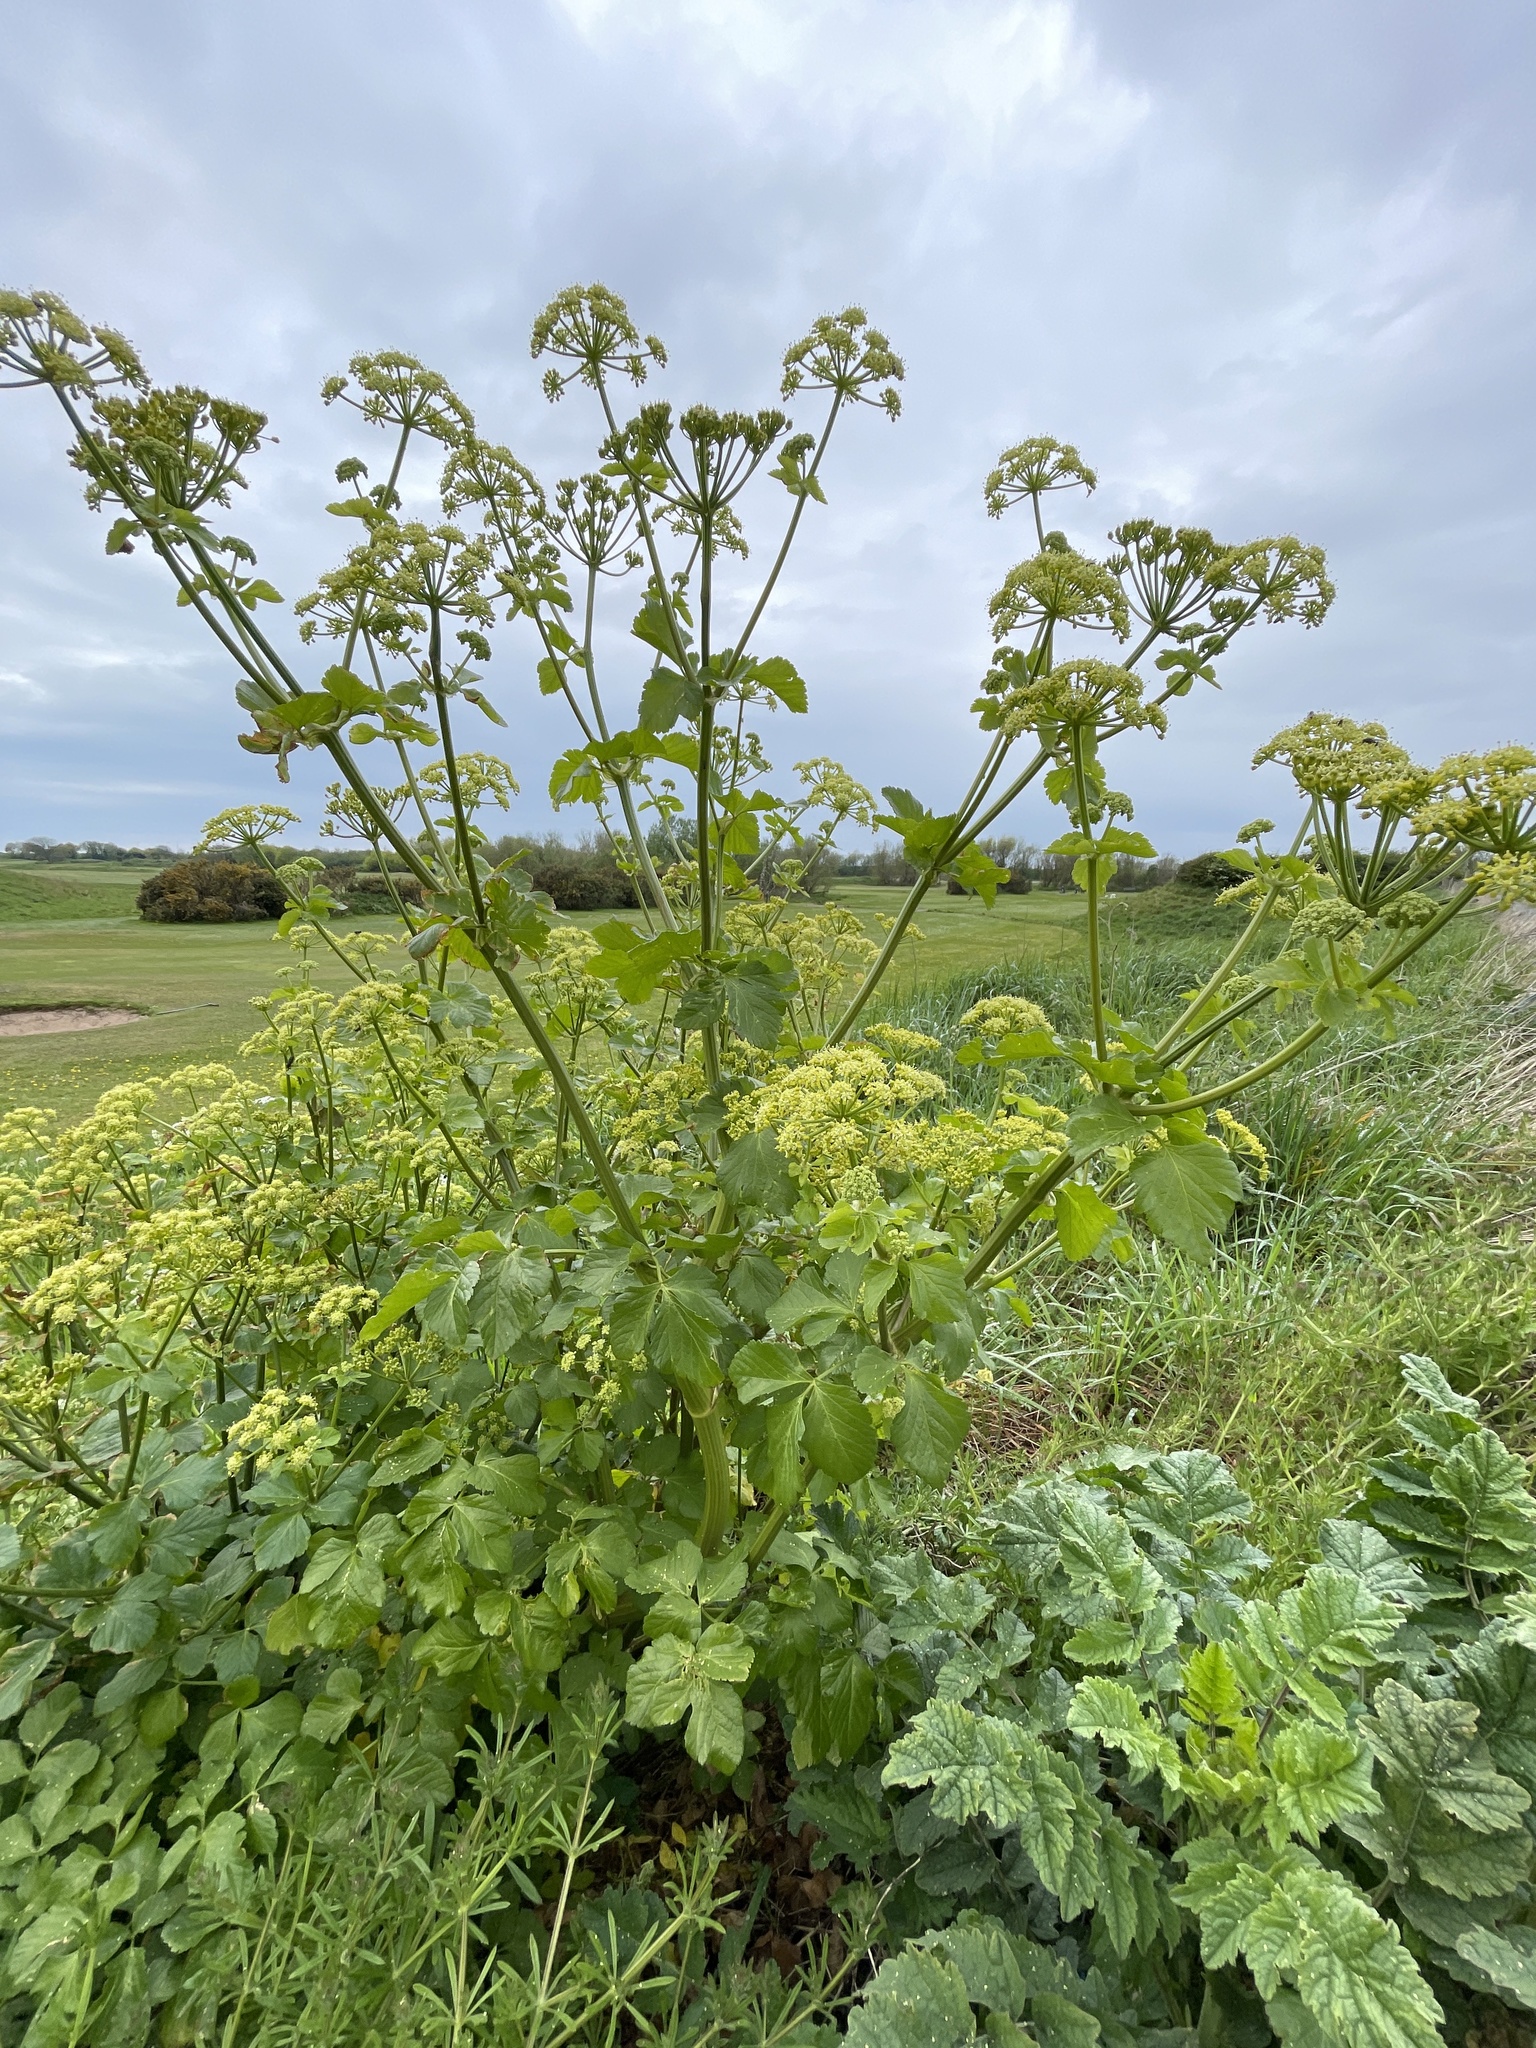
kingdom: Plantae
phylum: Tracheophyta
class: Magnoliopsida
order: Apiales
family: Apiaceae
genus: Smyrnium
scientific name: Smyrnium olusatrum
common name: Alexanders
